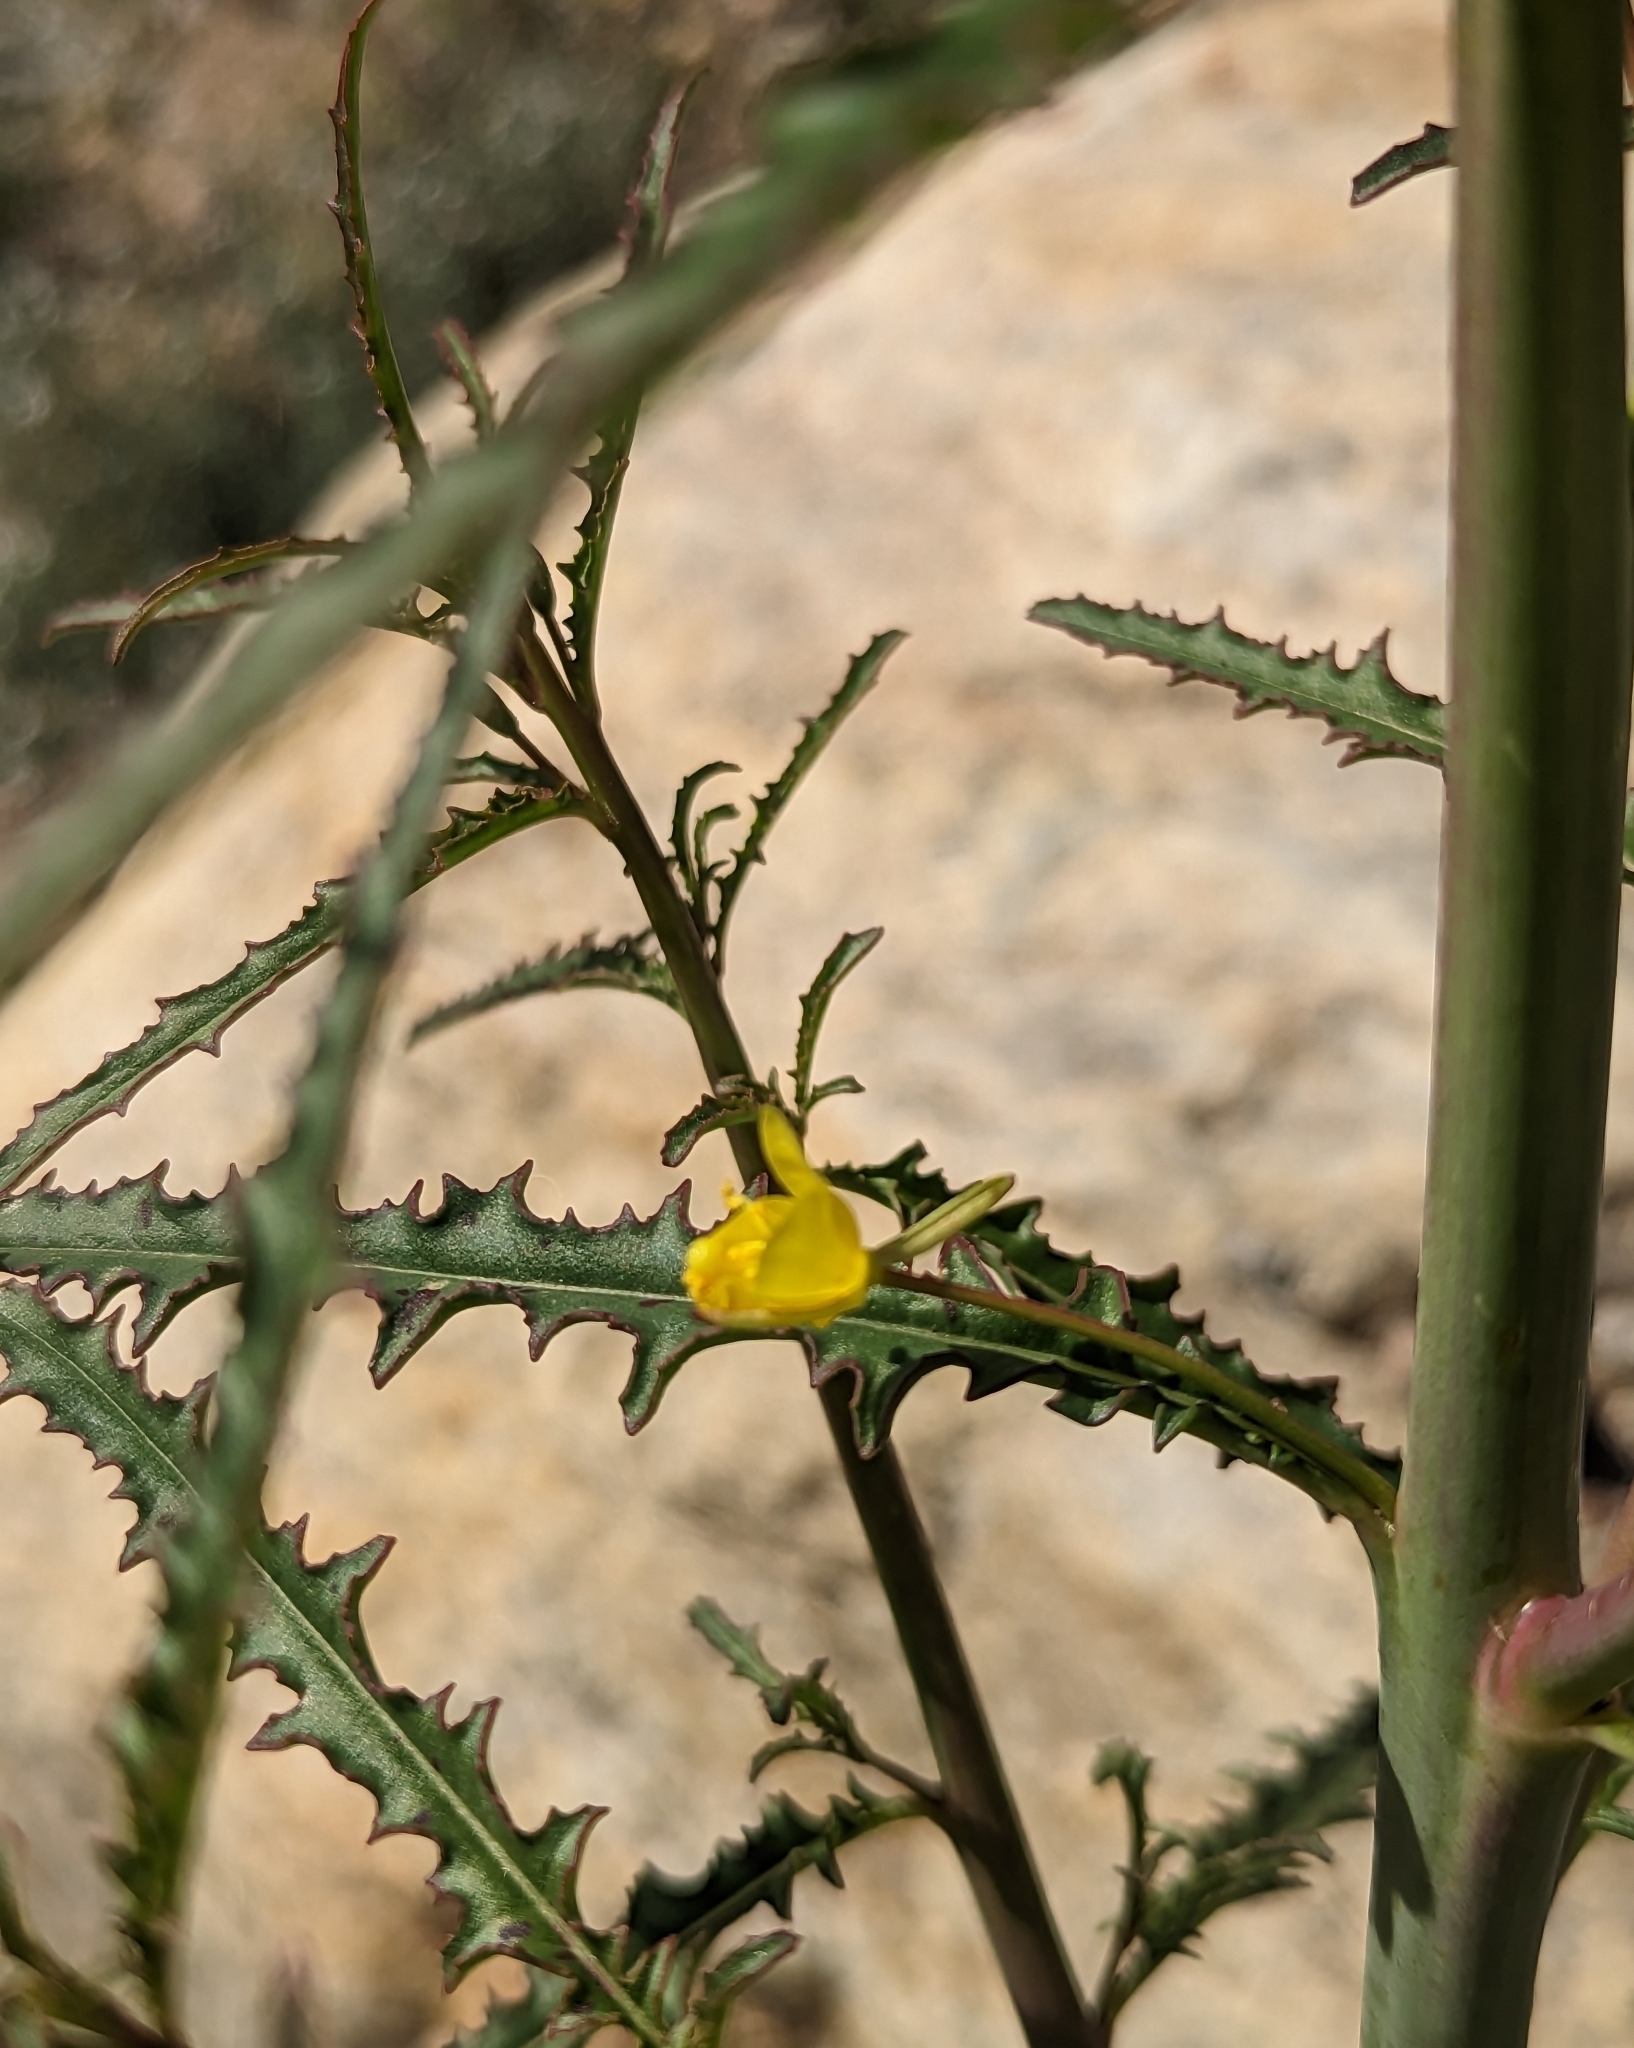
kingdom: Plantae
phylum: Tracheophyta
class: Magnoliopsida
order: Myrtales
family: Onagraceae
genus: Eulobus
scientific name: Eulobus californicus
